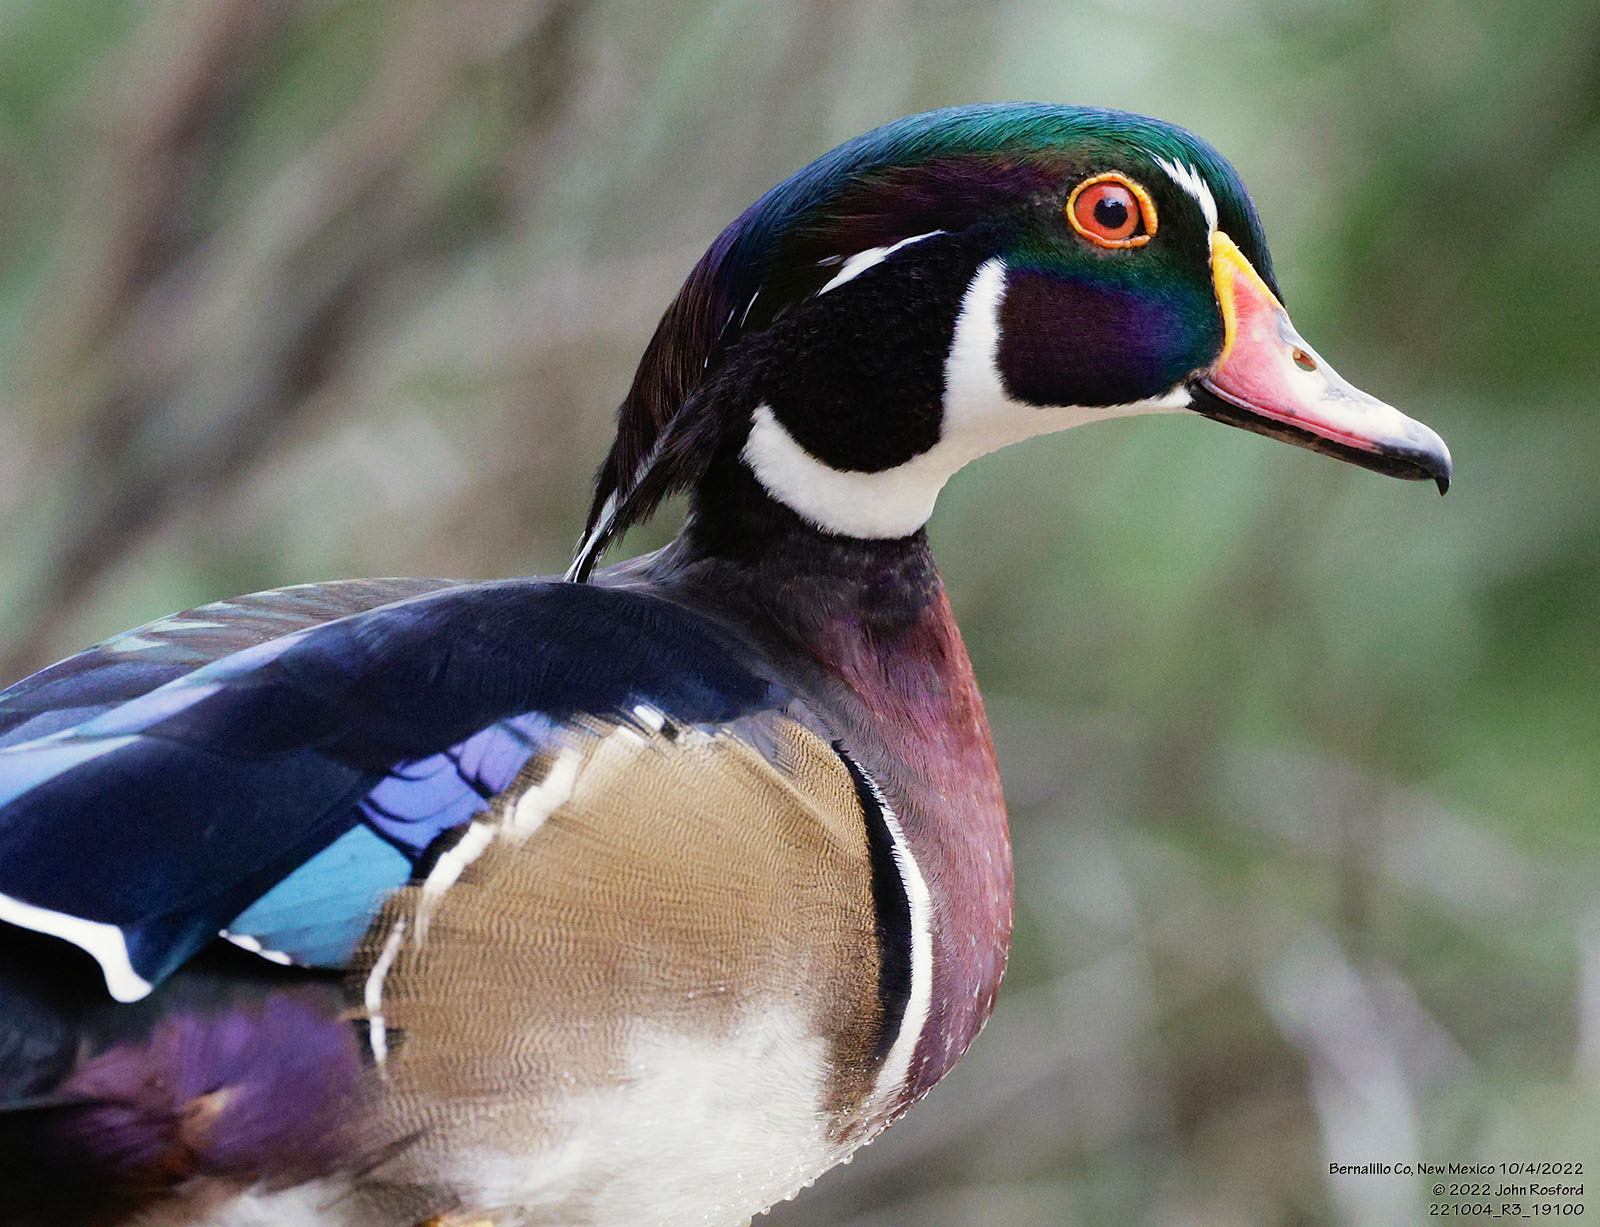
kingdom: Animalia
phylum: Chordata
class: Aves
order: Anseriformes
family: Anatidae
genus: Aix
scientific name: Aix sponsa
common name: Wood duck
